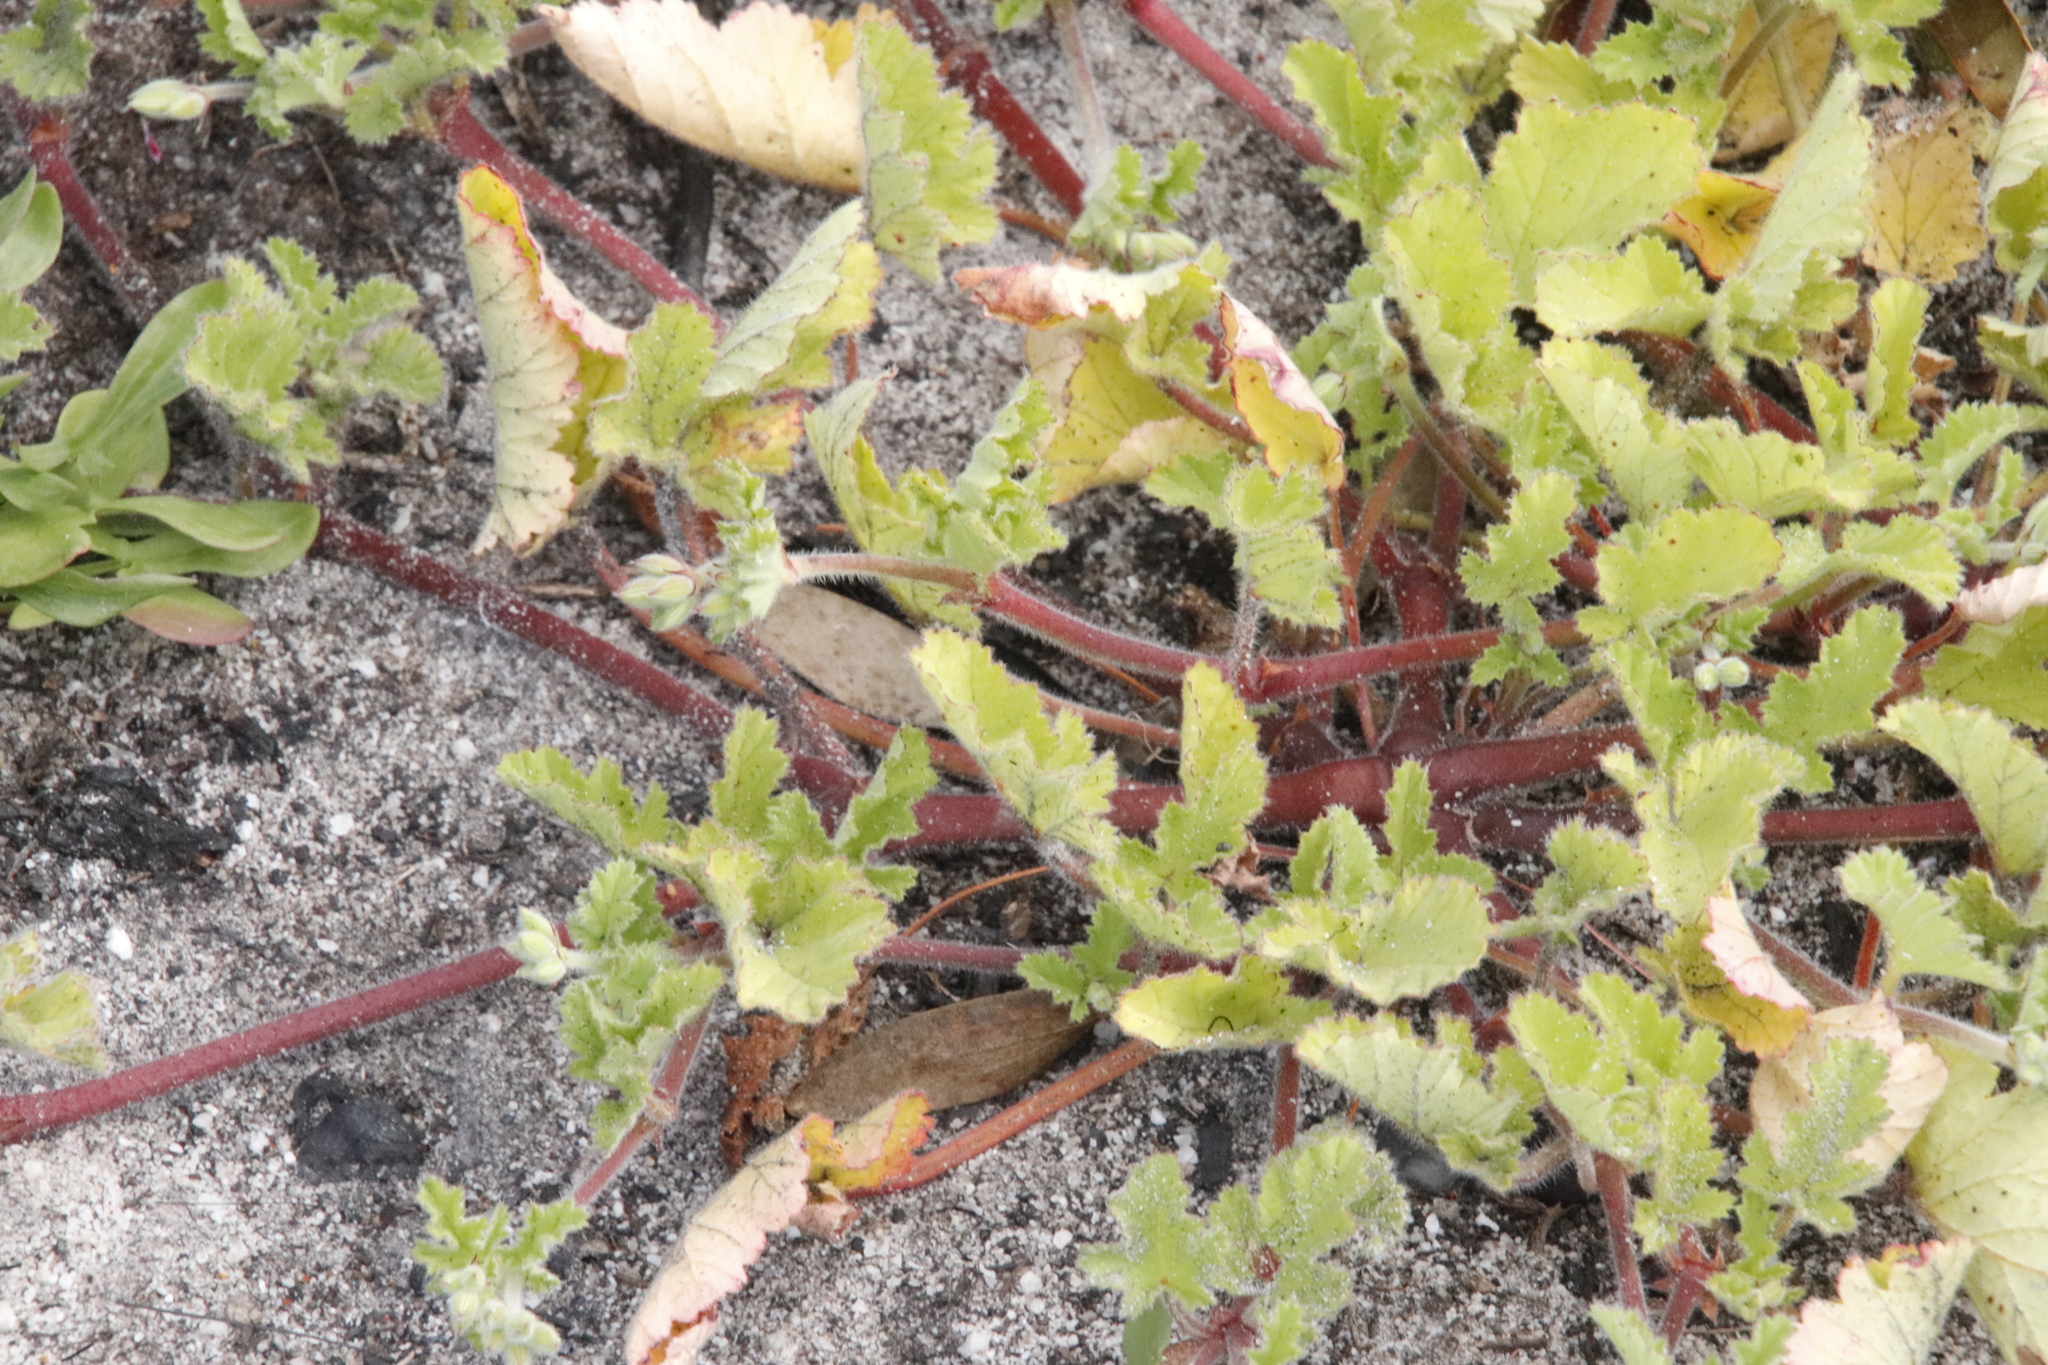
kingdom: Plantae
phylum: Tracheophyta
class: Magnoliopsida
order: Geraniales
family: Geraniaceae
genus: Pelargonium
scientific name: Pelargonium althaeoides
